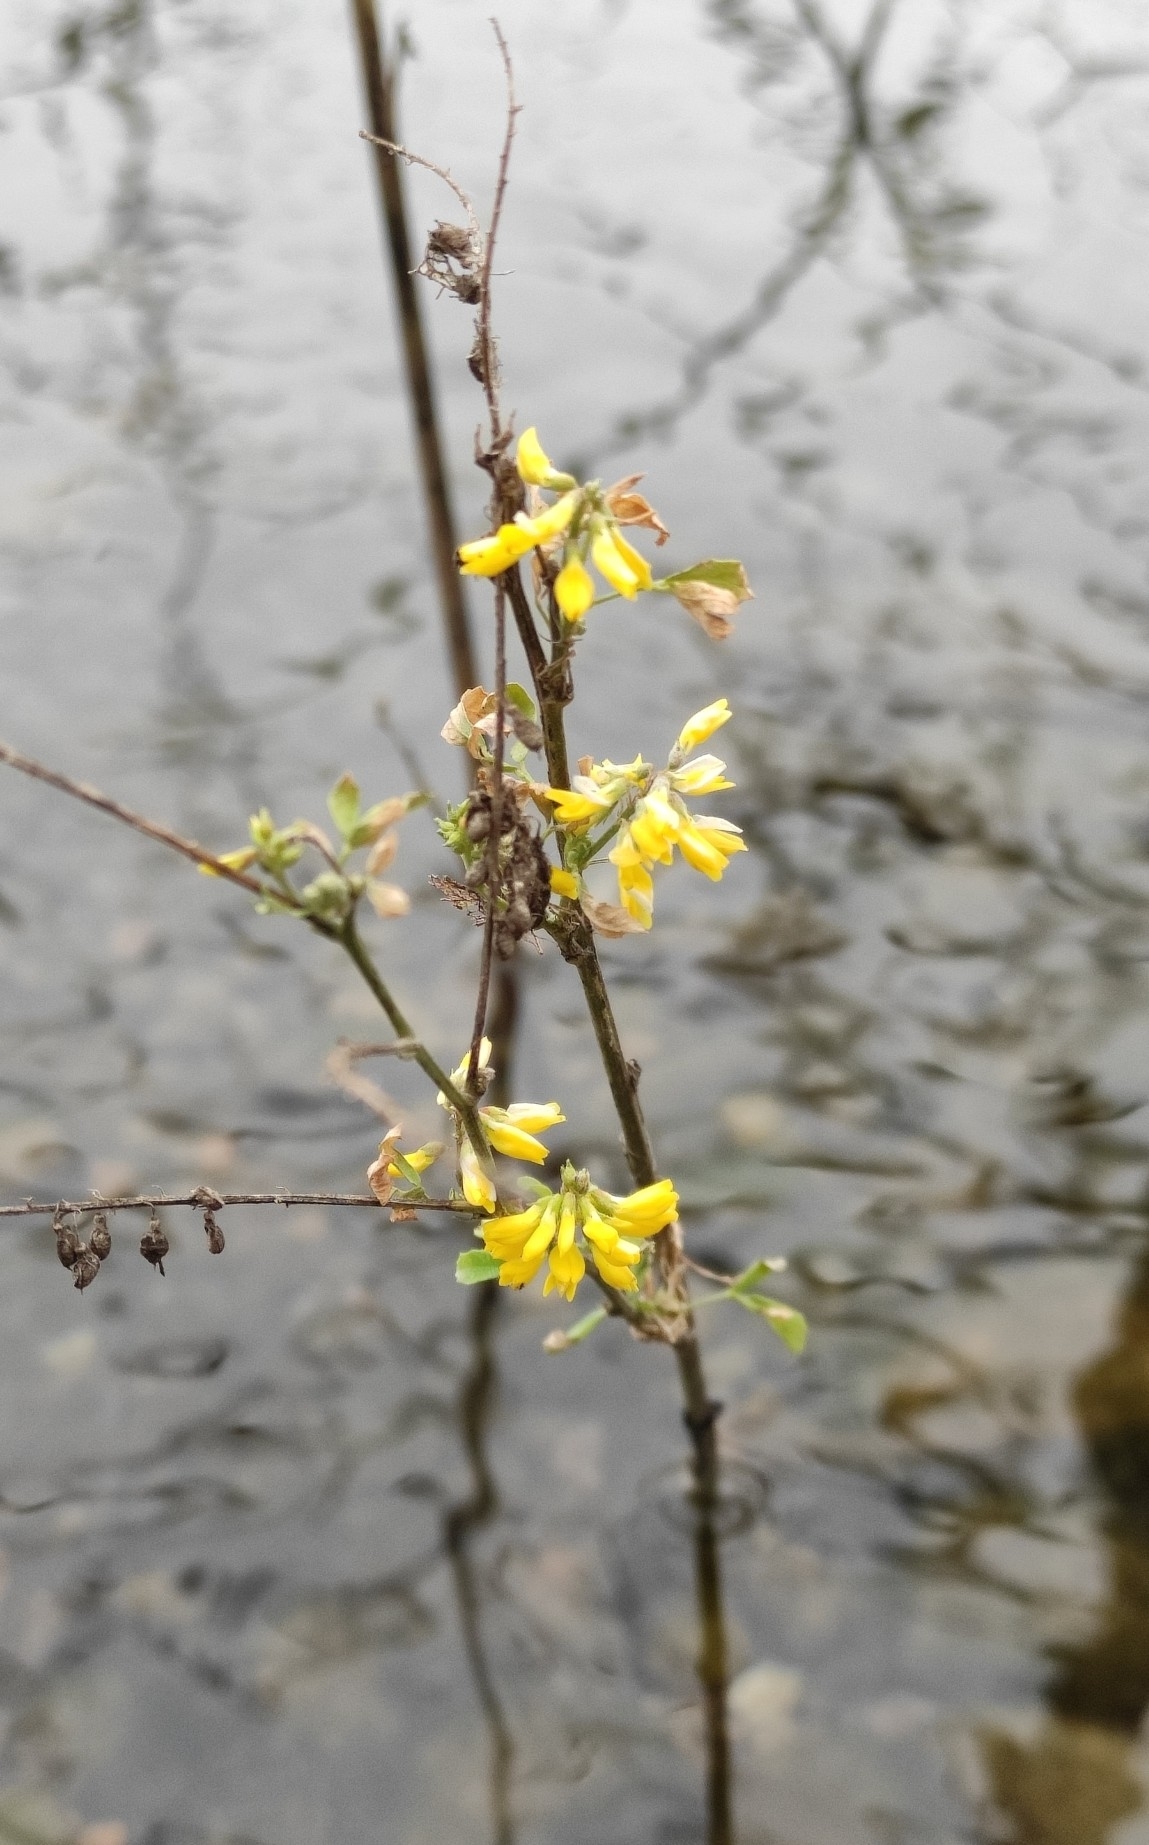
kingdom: Plantae
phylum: Tracheophyta
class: Magnoliopsida
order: Fabales
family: Fabaceae
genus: Melilotus
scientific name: Melilotus officinalis
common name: Sweetclover
